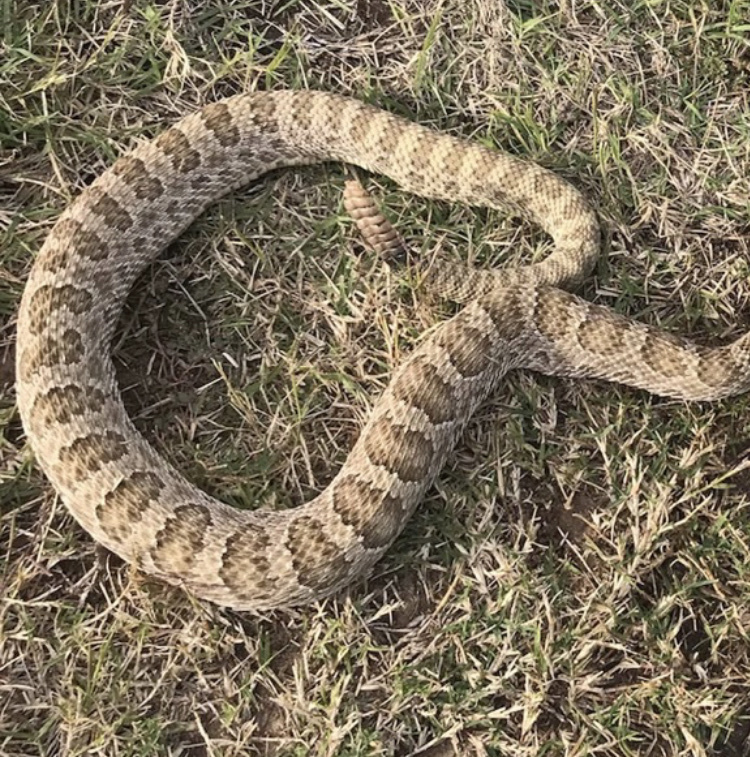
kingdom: Animalia
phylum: Chordata
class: Squamata
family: Viperidae
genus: Crotalus
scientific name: Crotalus viridis
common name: Prairie rattlesnake
